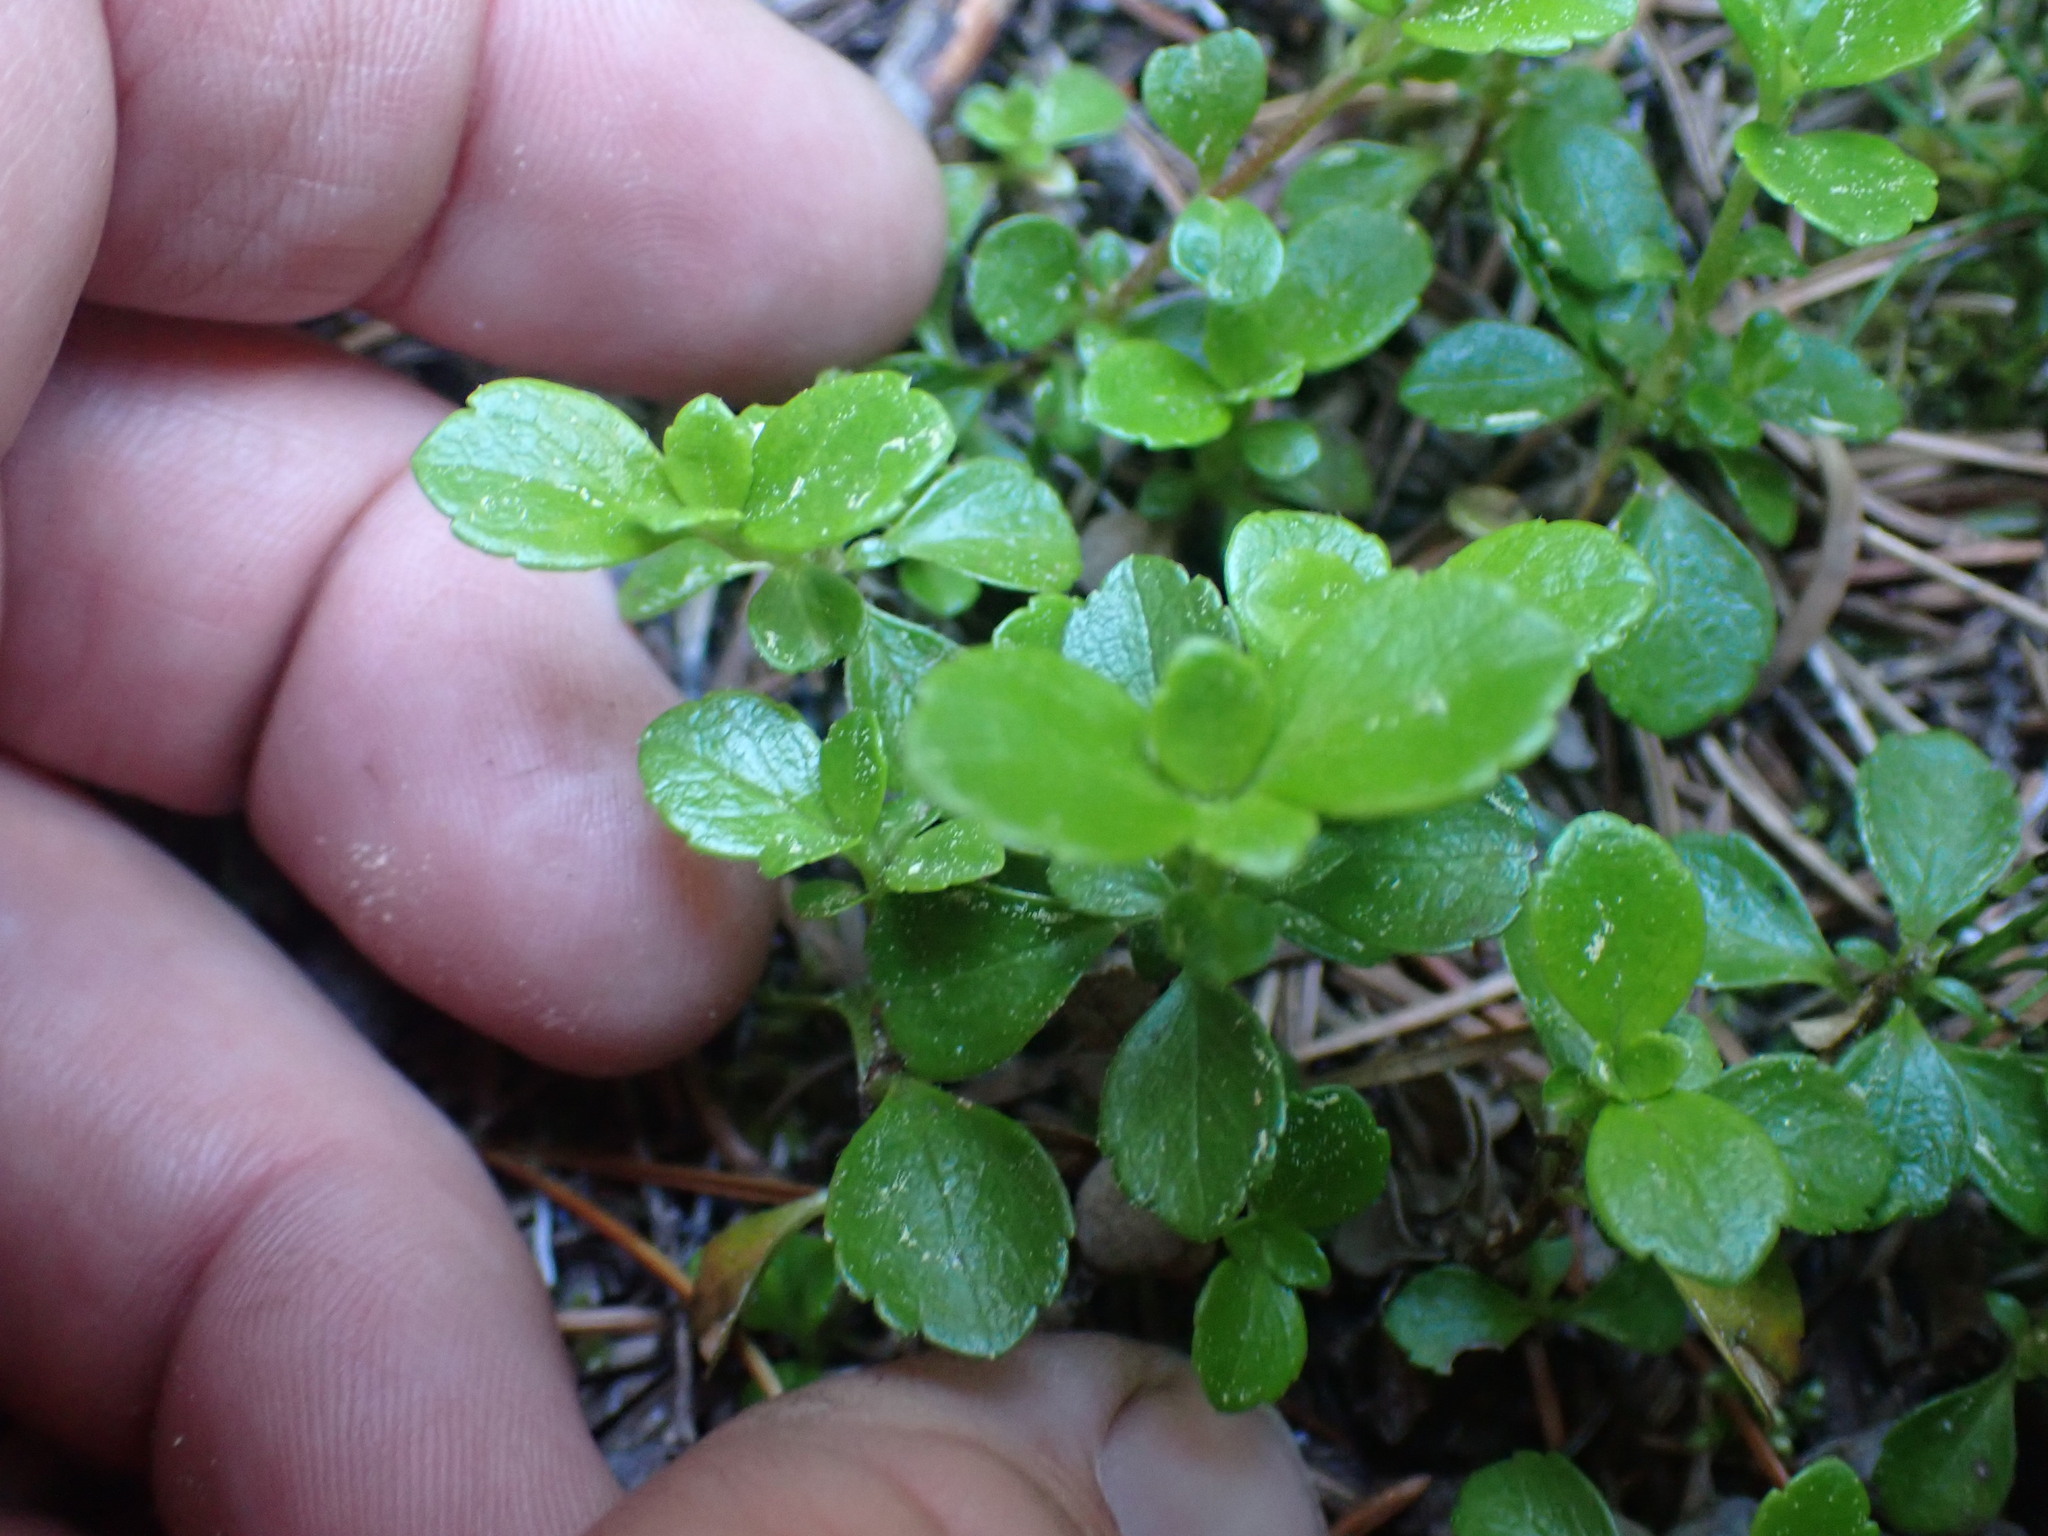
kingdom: Plantae
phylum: Tracheophyta
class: Magnoliopsida
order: Dipsacales
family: Caprifoliaceae
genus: Linnaea
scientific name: Linnaea borealis
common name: Twinflower
